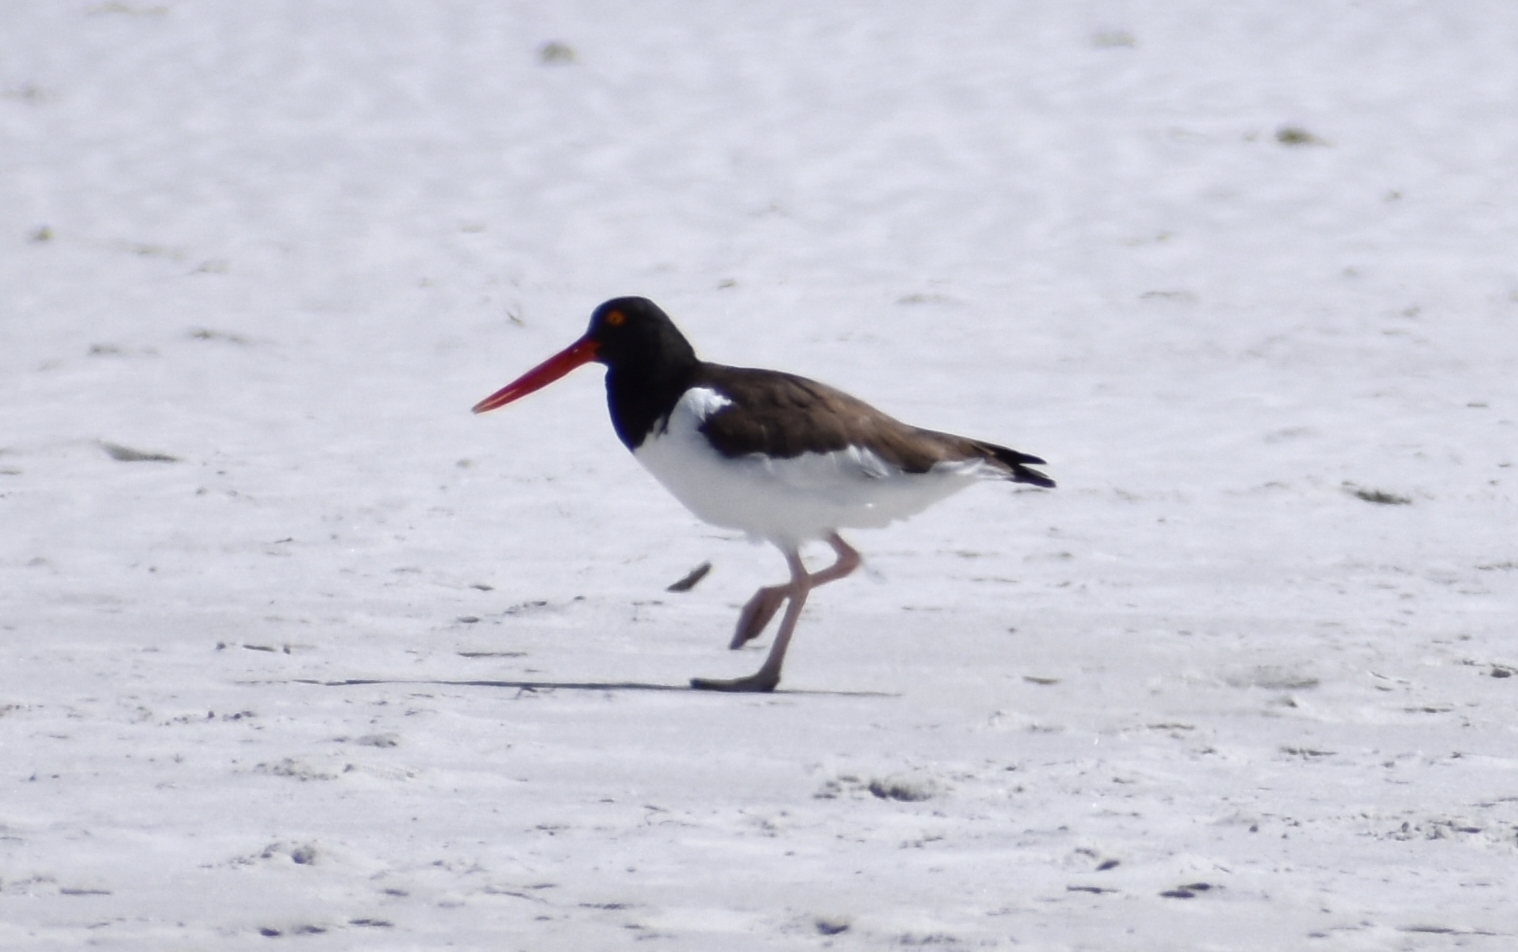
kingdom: Animalia
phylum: Chordata
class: Aves
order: Charadriiformes
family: Haematopodidae
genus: Haematopus
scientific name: Haematopus palliatus
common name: American oystercatcher
